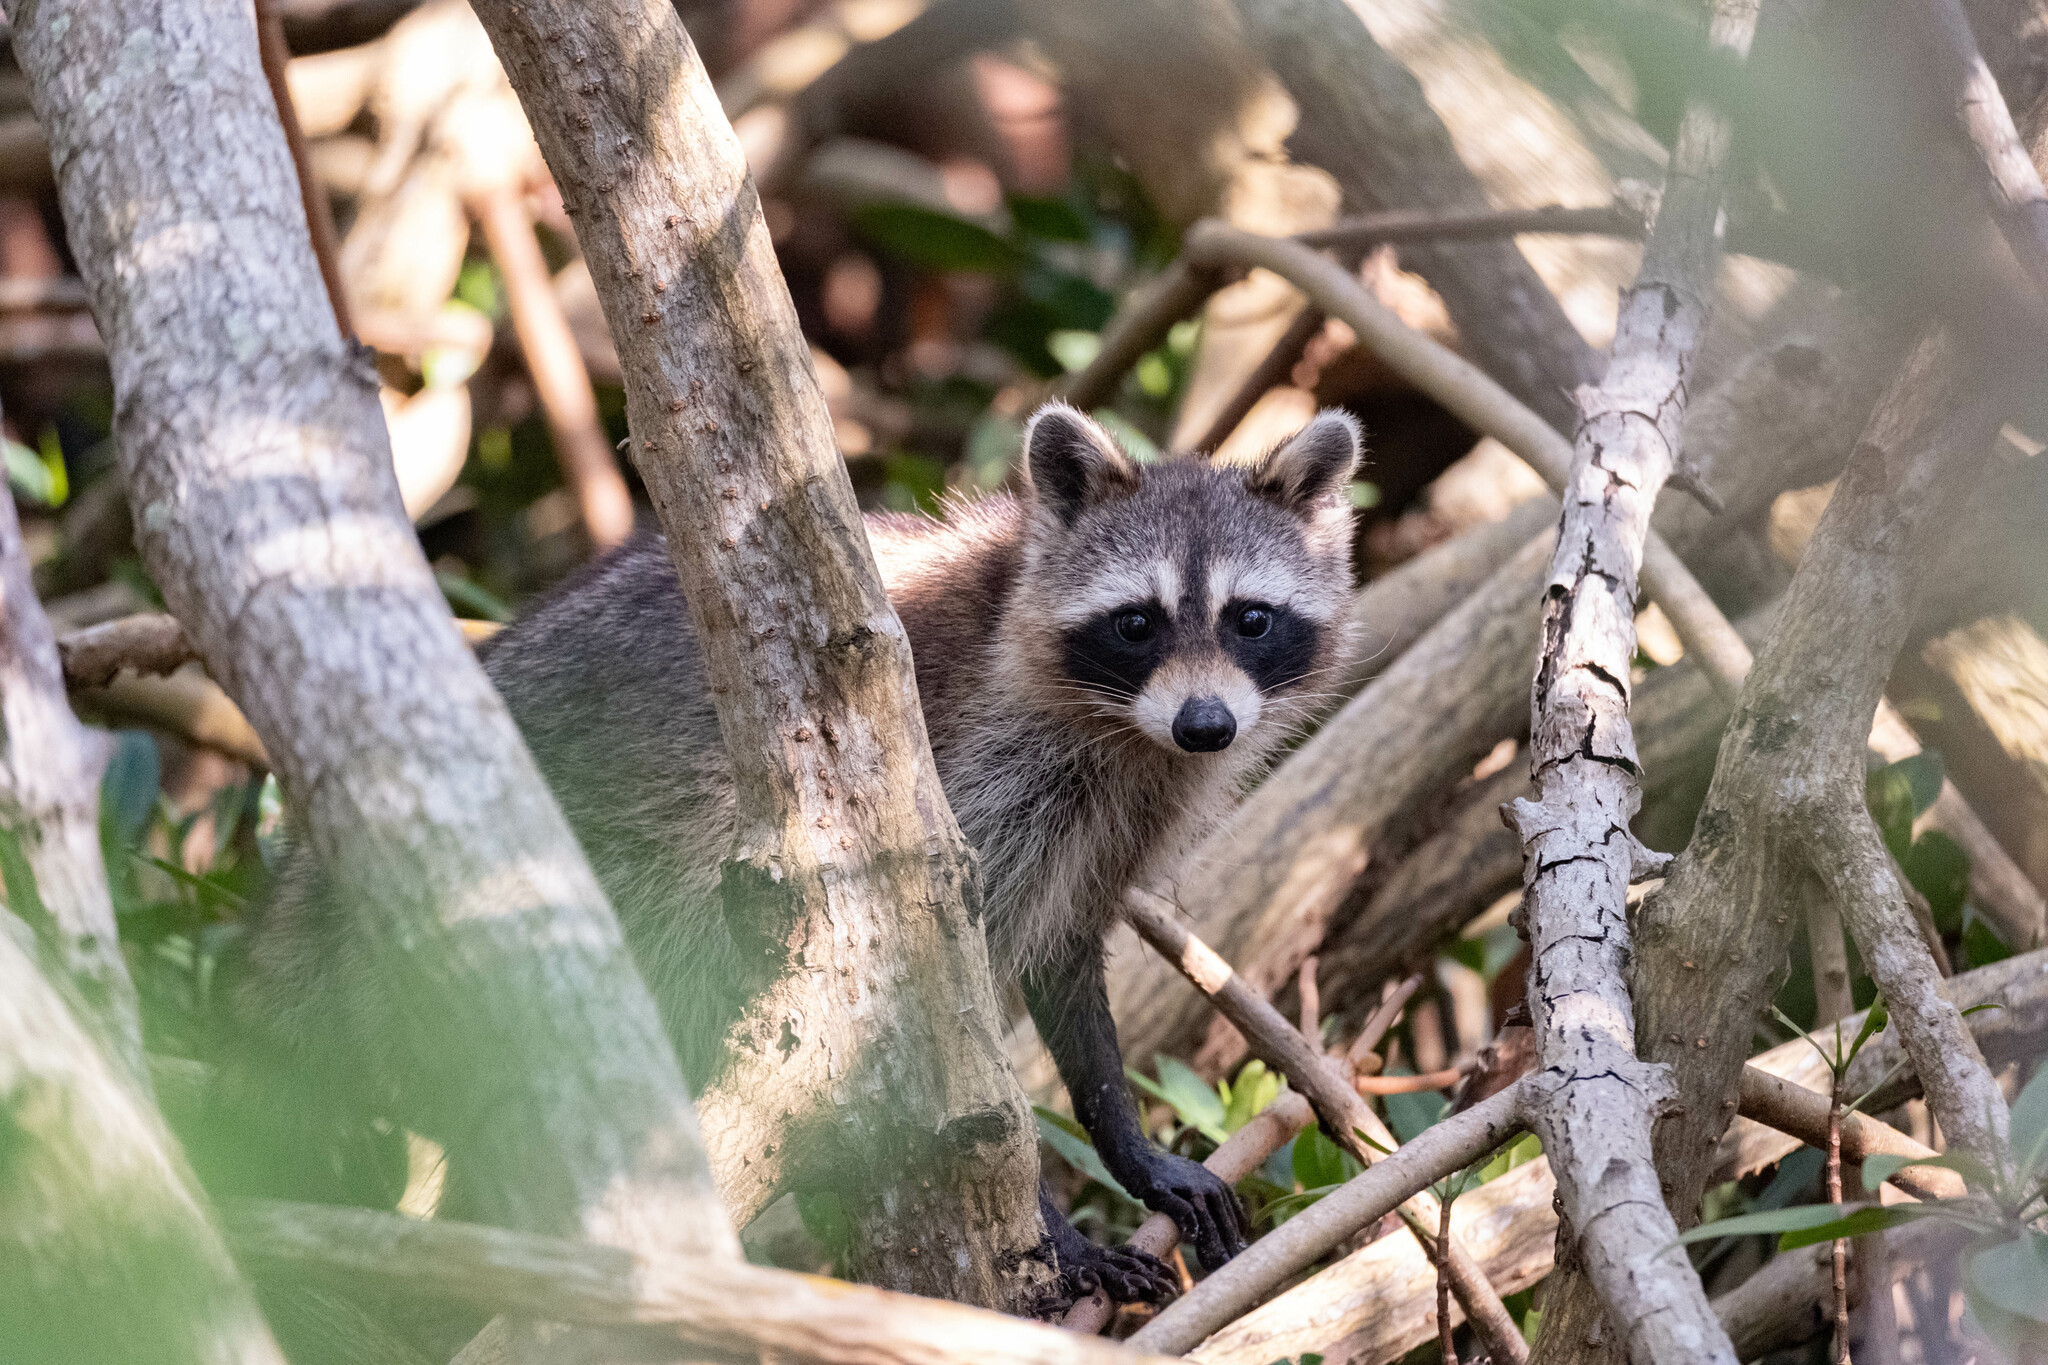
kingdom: Animalia
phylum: Chordata
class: Mammalia
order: Carnivora
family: Procyonidae
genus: Procyon
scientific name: Procyon lotor
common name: Raccoon
